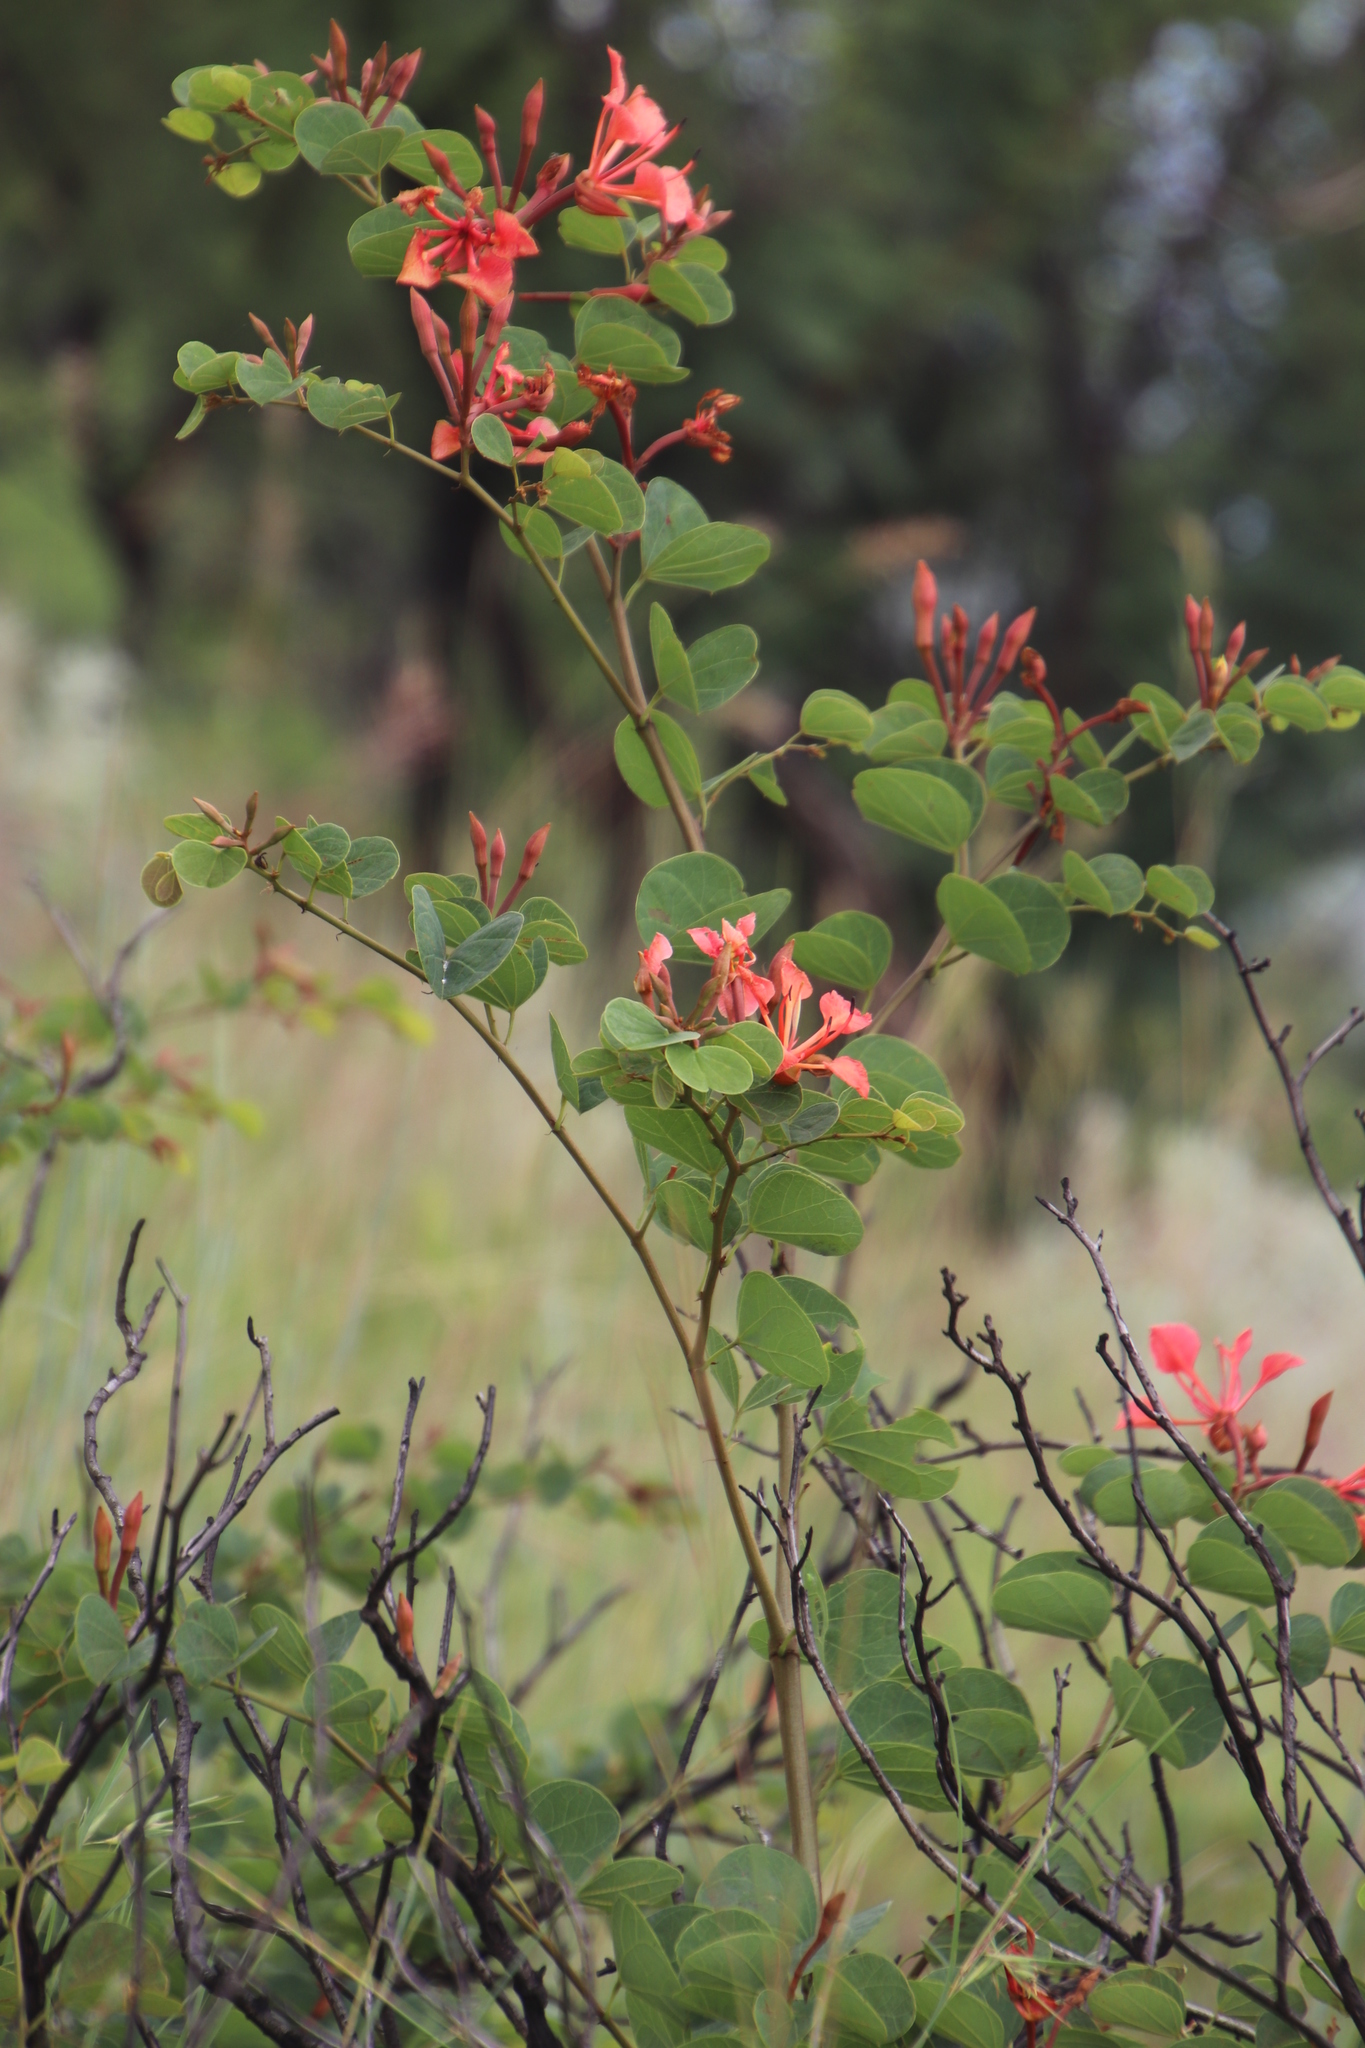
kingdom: Plantae
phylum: Tracheophyta
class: Magnoliopsida
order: Fabales
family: Fabaceae
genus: Bauhinia
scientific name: Bauhinia galpinii
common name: African plume
